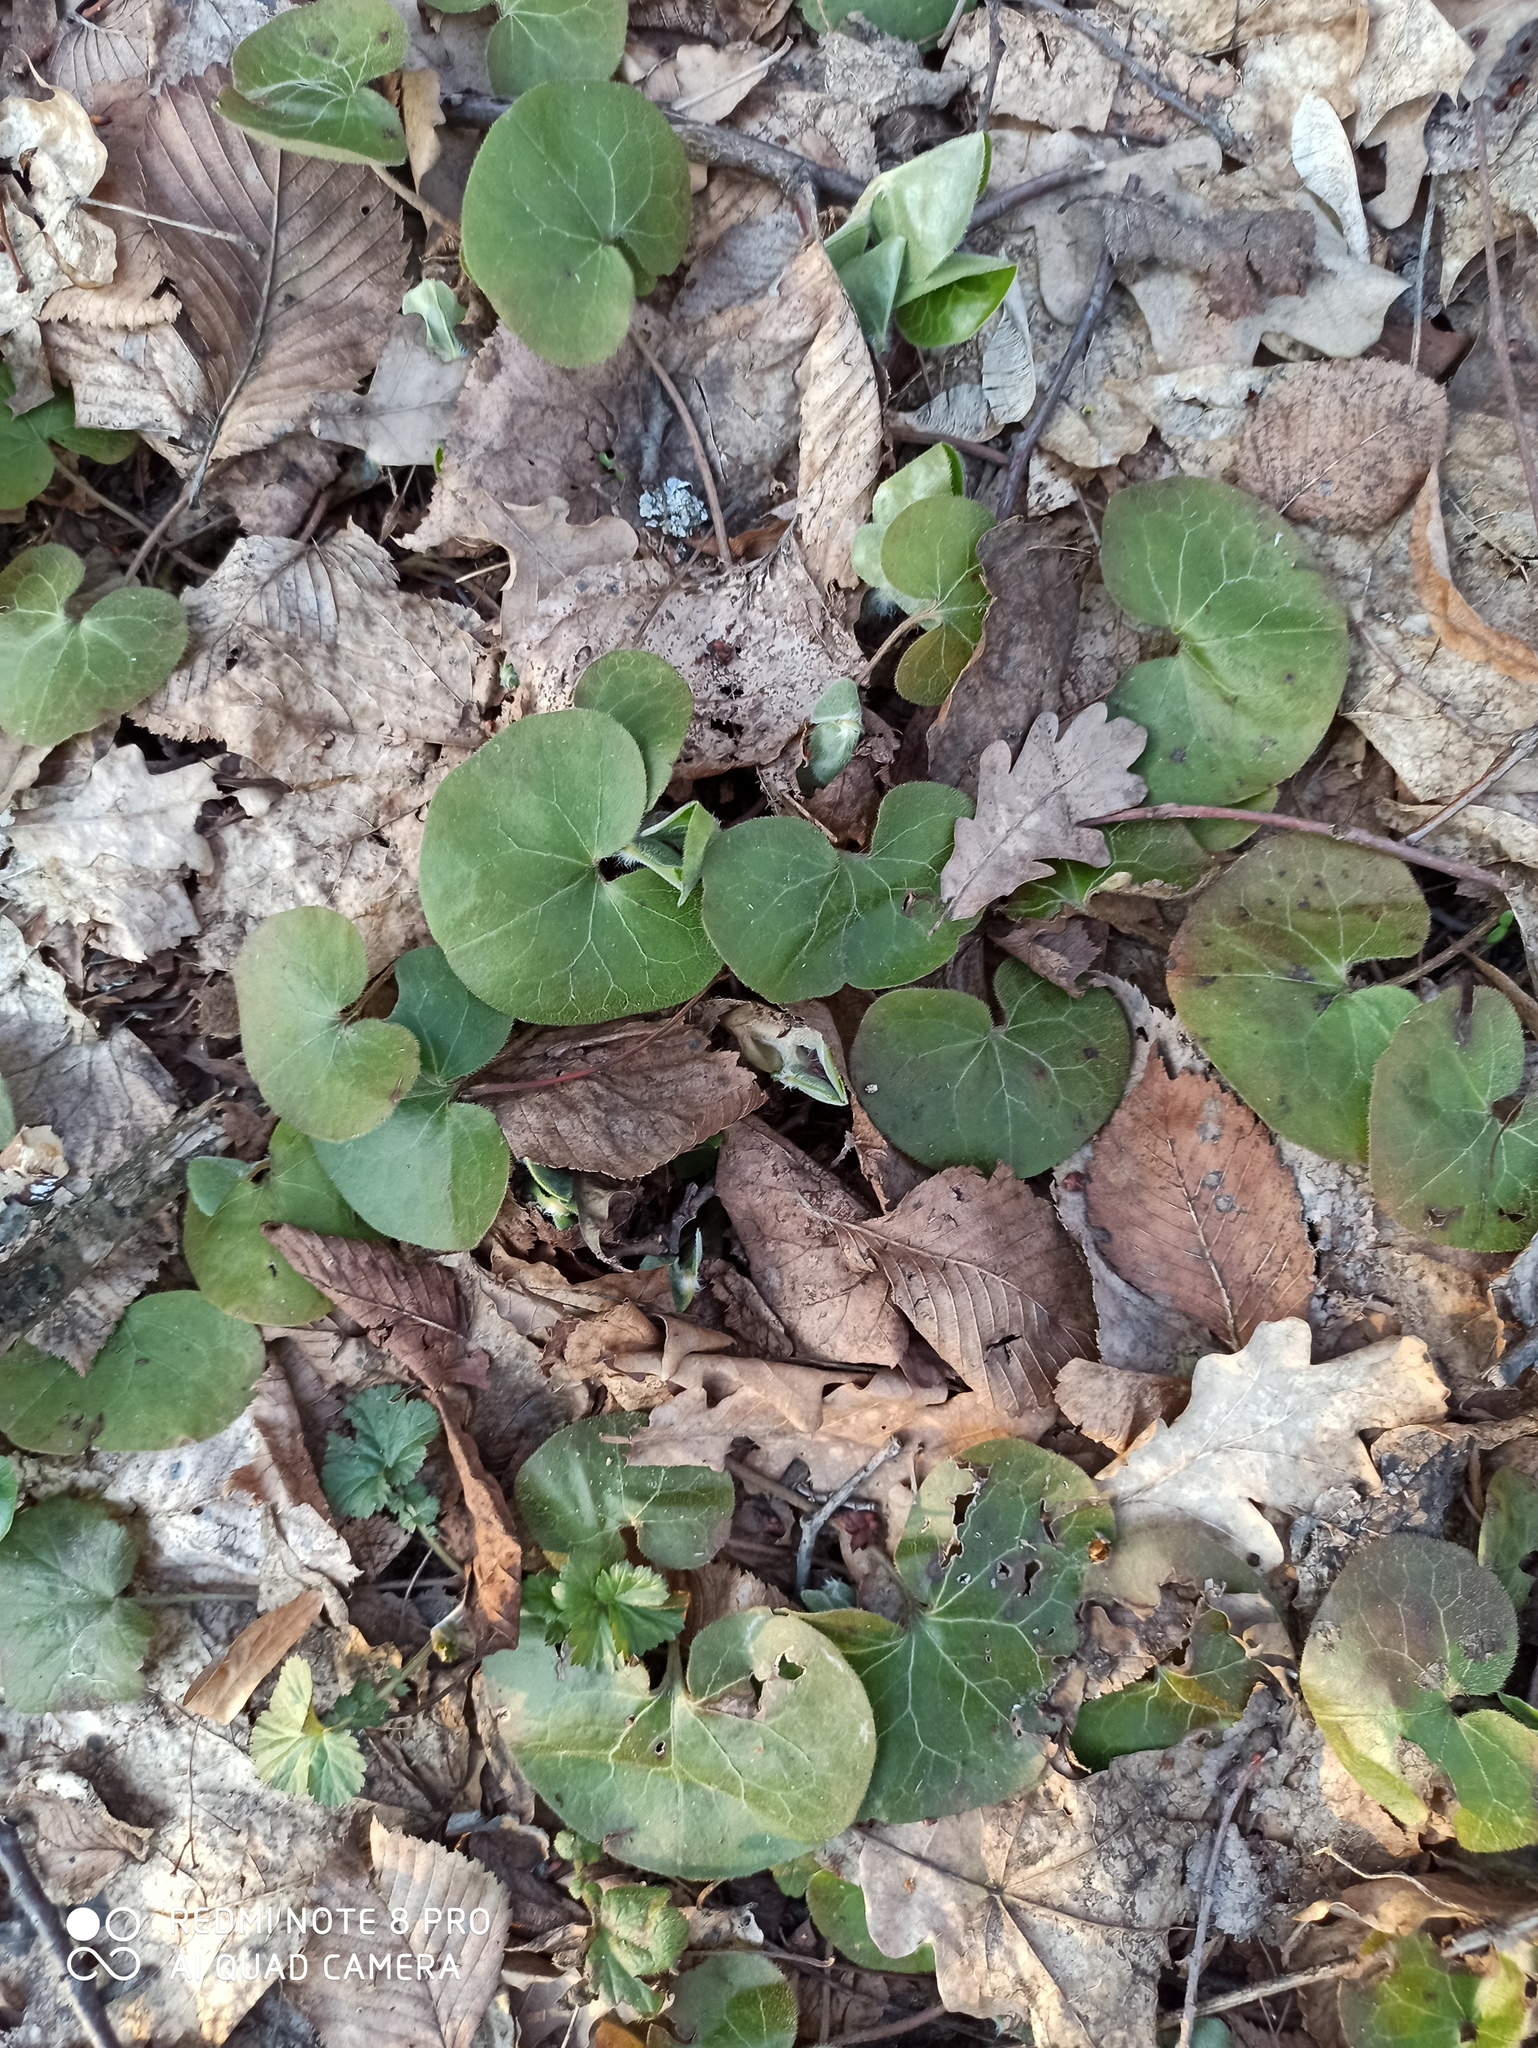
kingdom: Plantae
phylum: Tracheophyta
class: Magnoliopsida
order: Piperales
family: Aristolochiaceae
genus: Asarum
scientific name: Asarum europaeum
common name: Asarabacca
